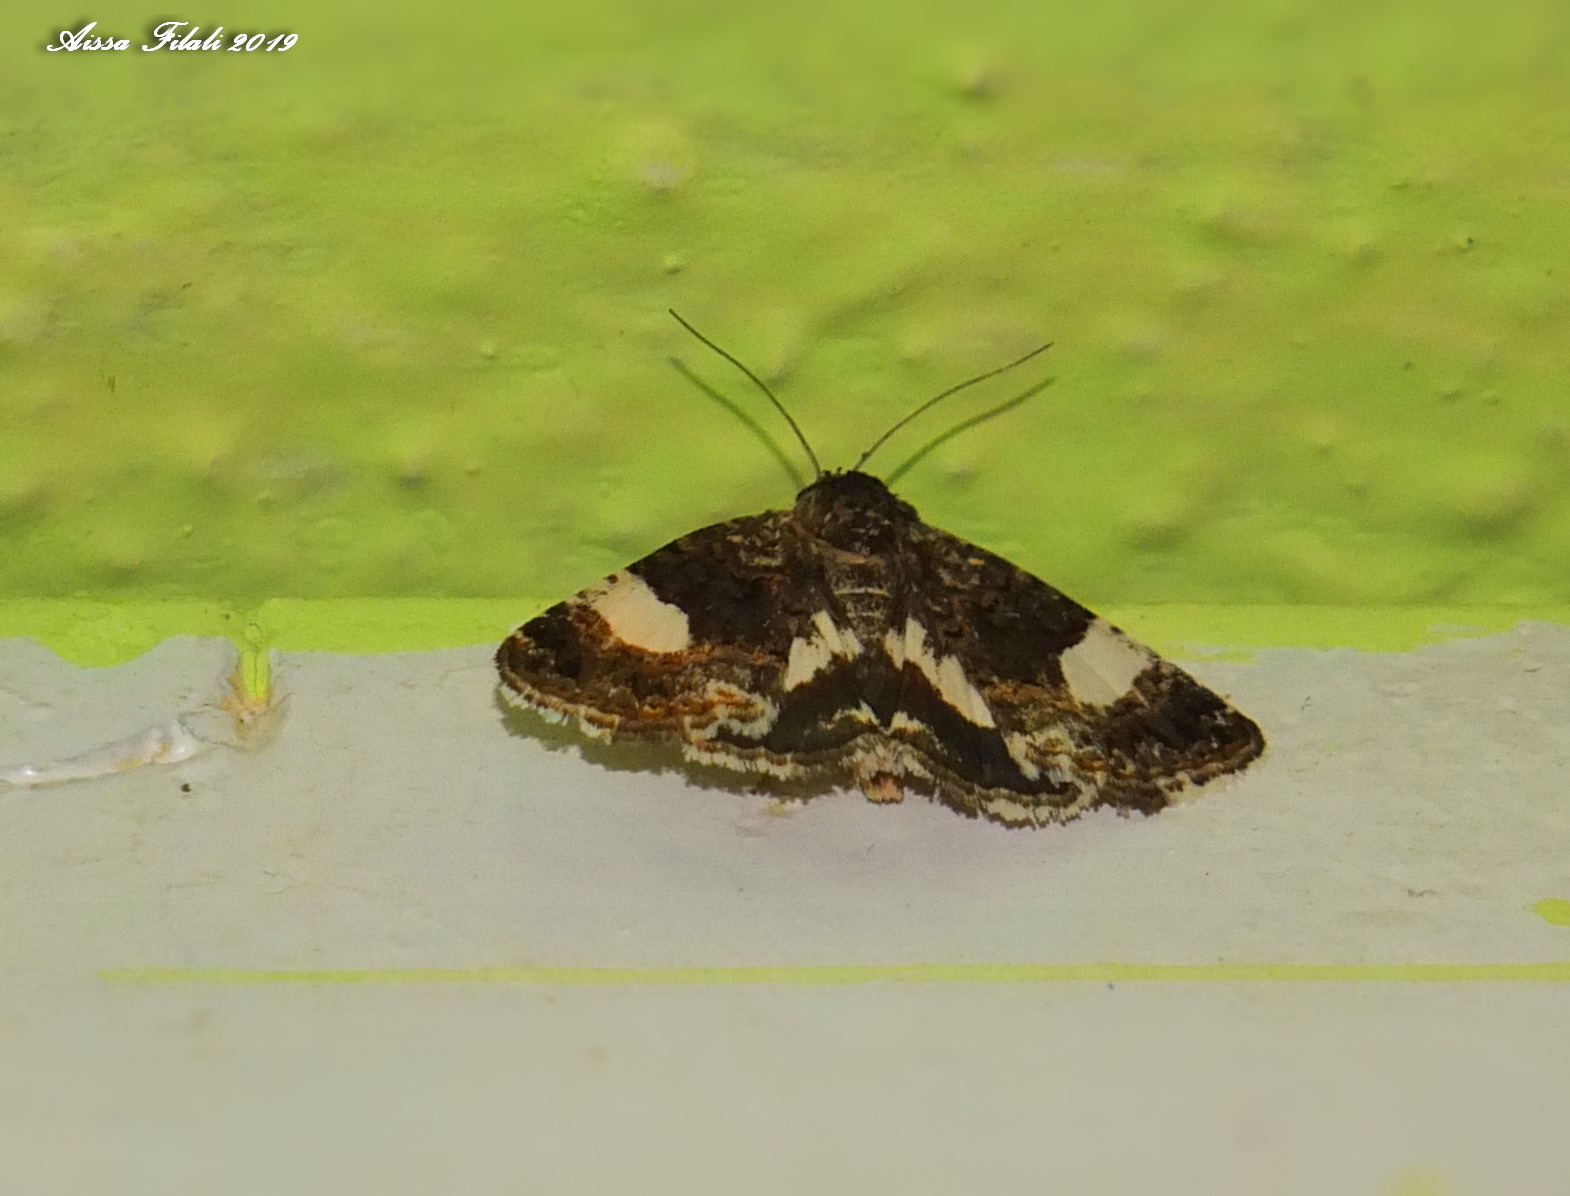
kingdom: Animalia
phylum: Arthropoda
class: Insecta
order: Lepidoptera
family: Erebidae
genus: Tyta
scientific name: Tyta luctuosa
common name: Four-spotted
